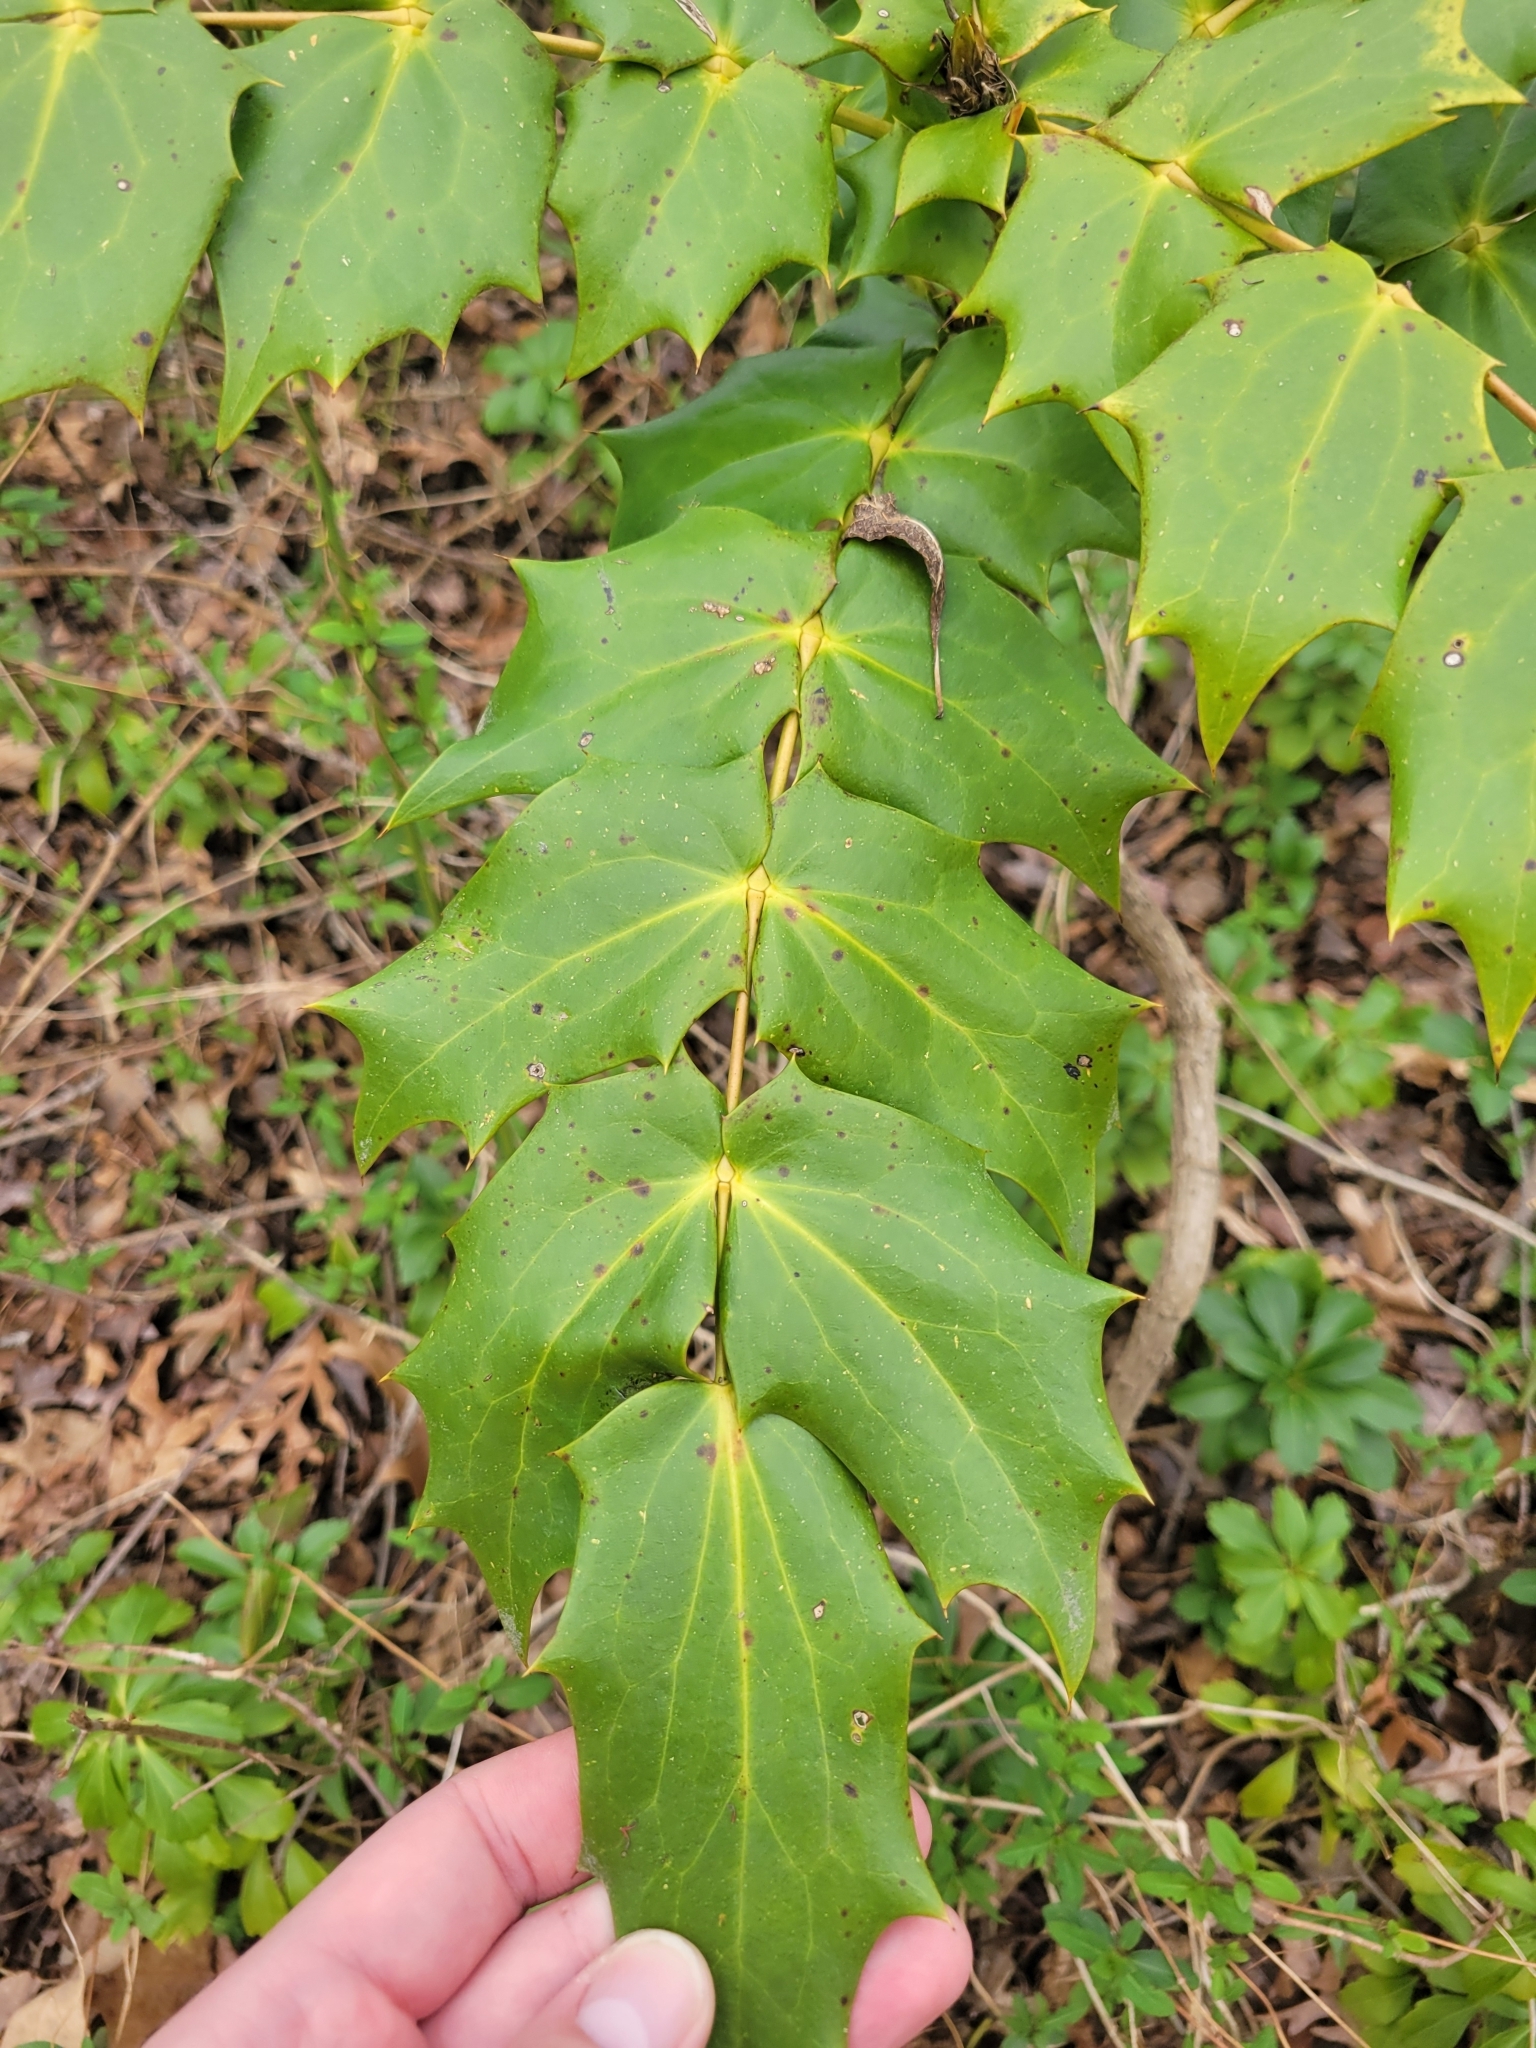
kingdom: Plantae
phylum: Tracheophyta
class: Magnoliopsida
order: Ranunculales
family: Berberidaceae
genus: Mahonia
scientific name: Mahonia bealei
